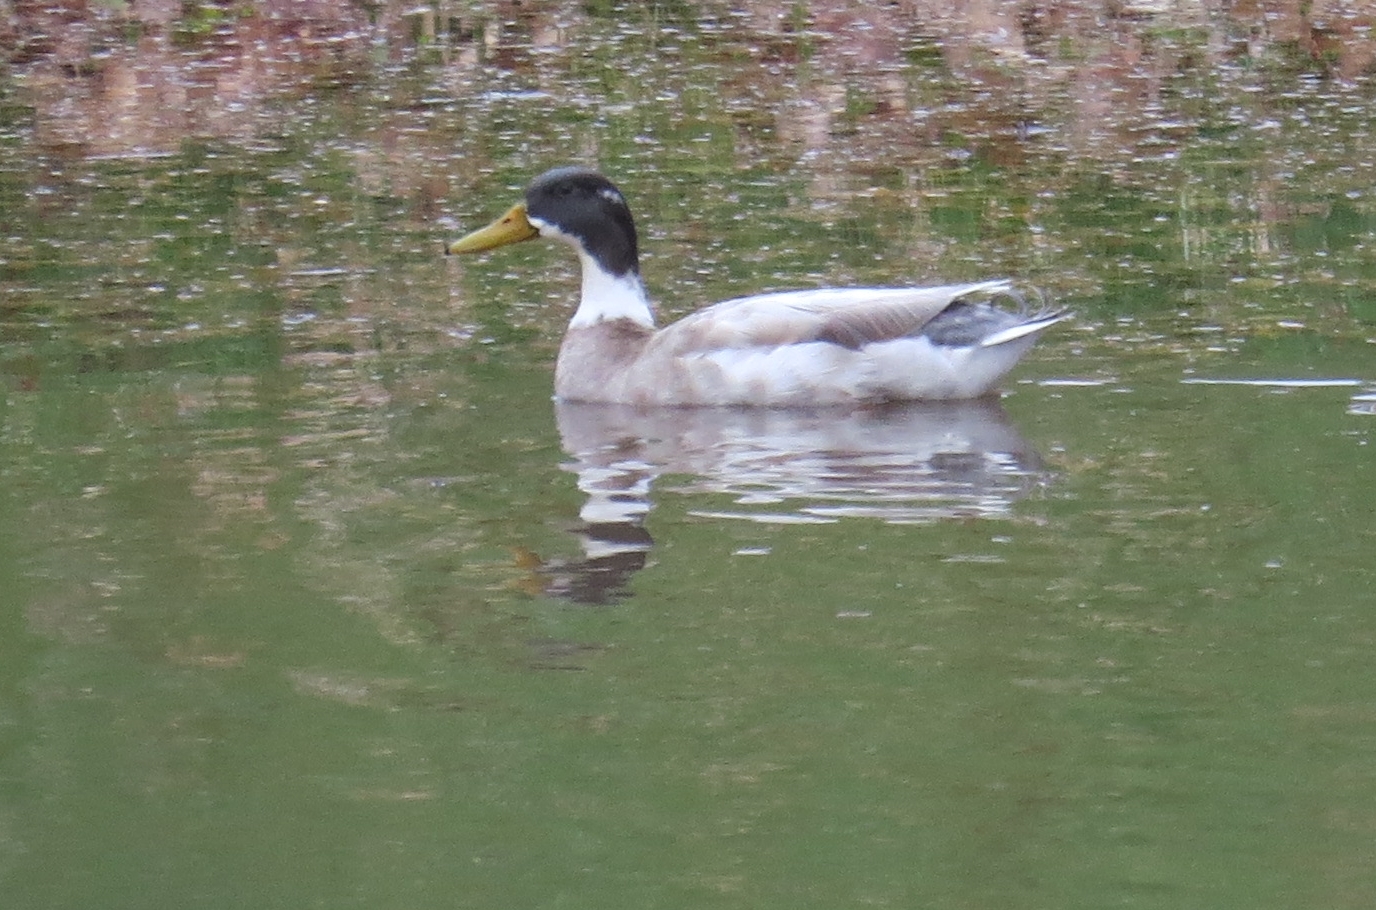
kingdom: Animalia
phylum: Chordata
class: Aves
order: Anseriformes
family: Anatidae
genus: Anas
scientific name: Anas platyrhynchos
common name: Mallard
